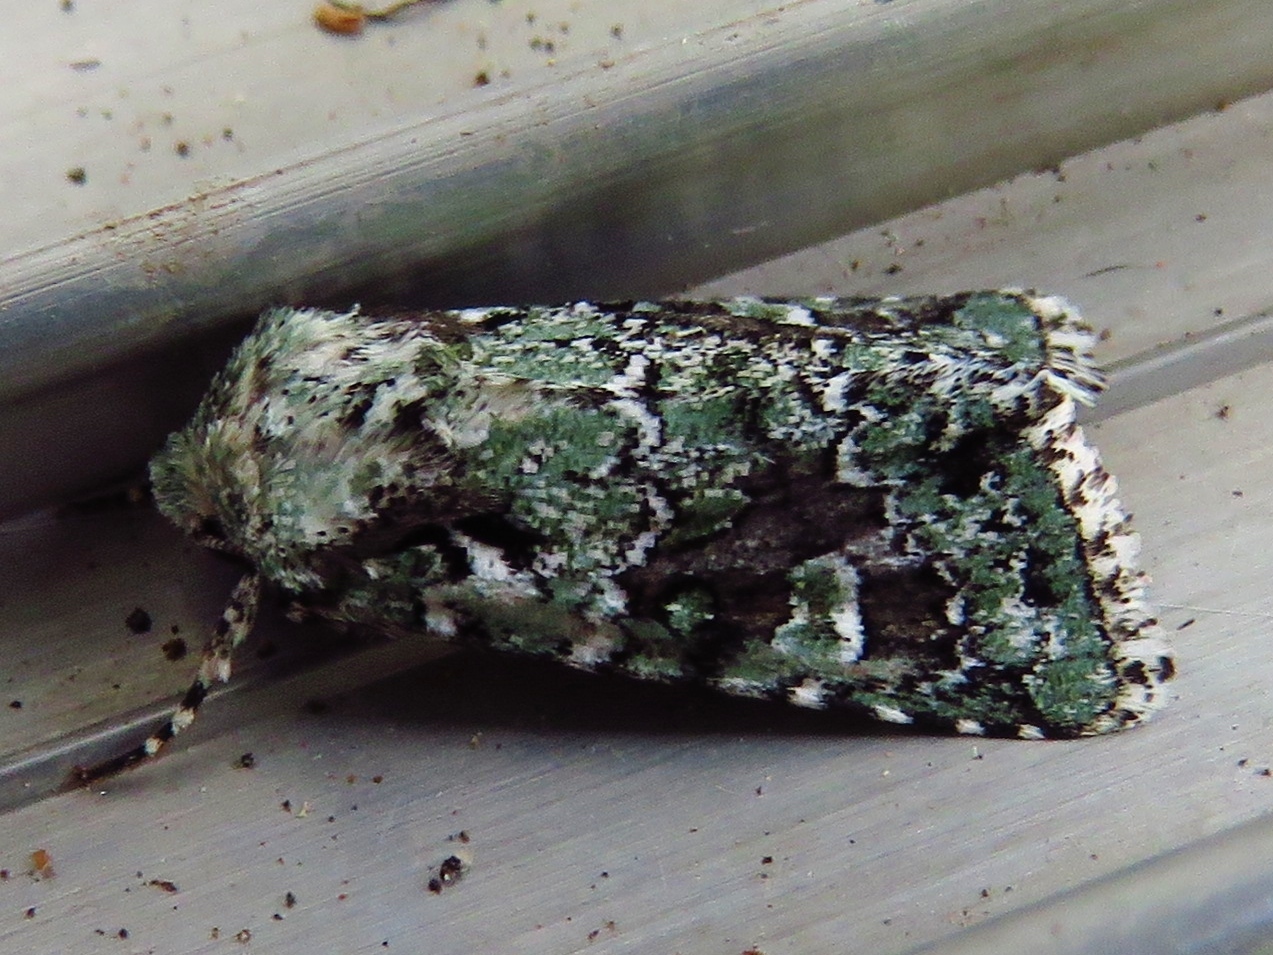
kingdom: Animalia
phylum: Arthropoda
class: Insecta
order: Lepidoptera
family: Noctuidae
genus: Lacinipolia
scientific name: Lacinipolia laudabilis
